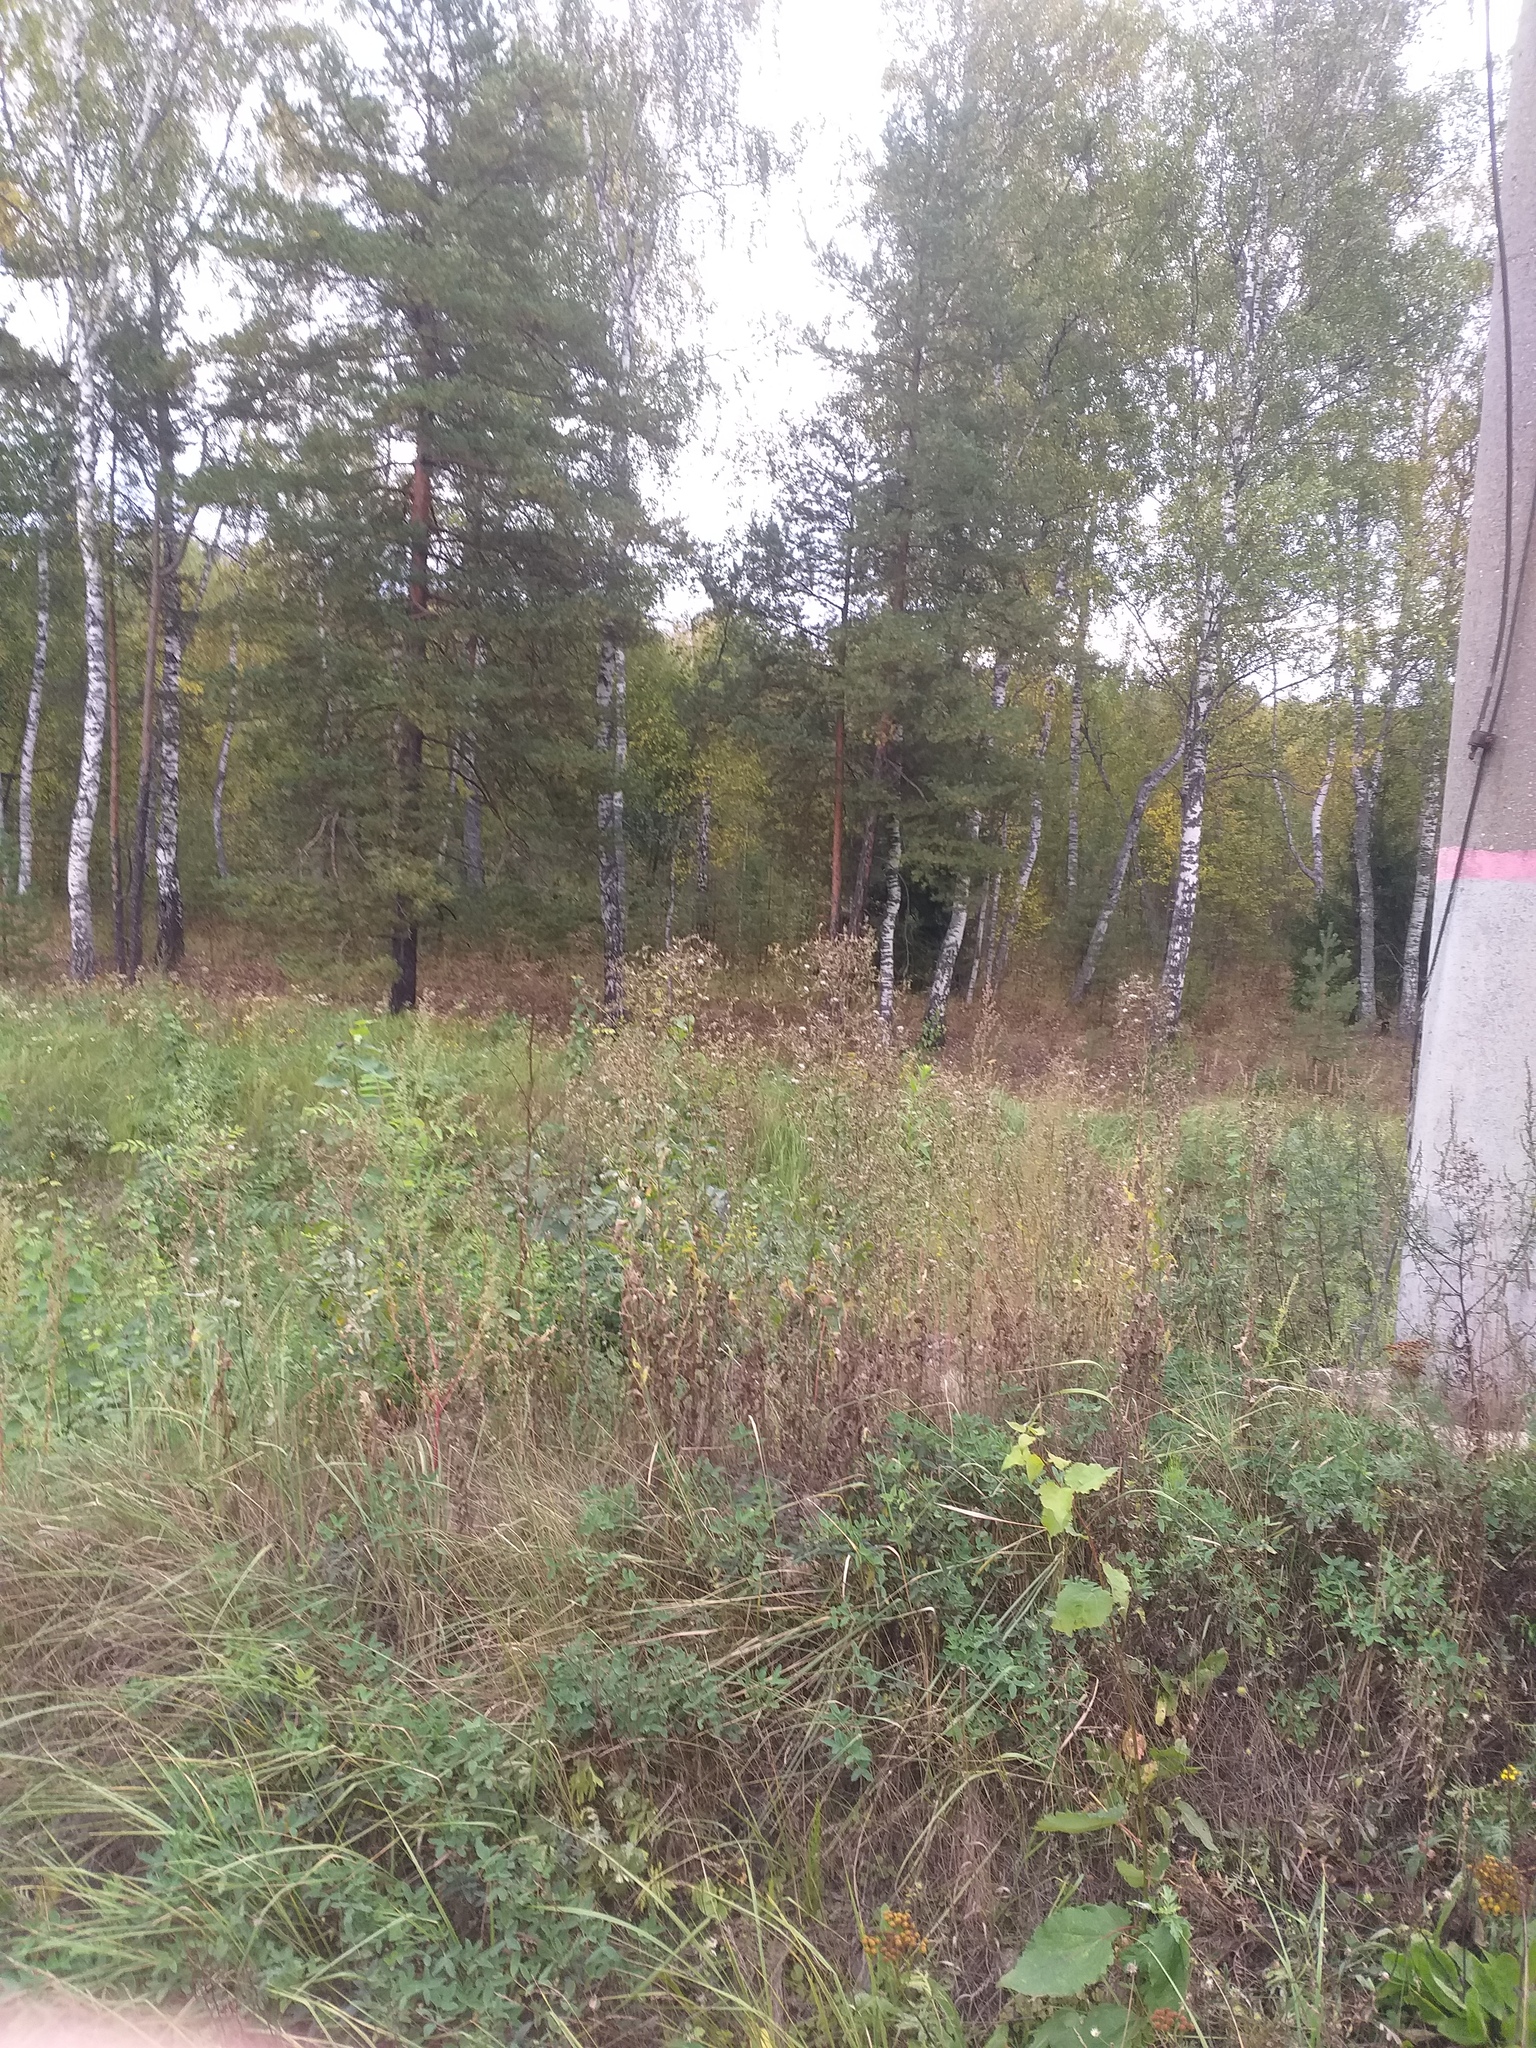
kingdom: Plantae
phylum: Tracheophyta
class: Magnoliopsida
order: Asterales
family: Asteraceae
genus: Lactuca
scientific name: Lactuca serriola
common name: Prickly lettuce
